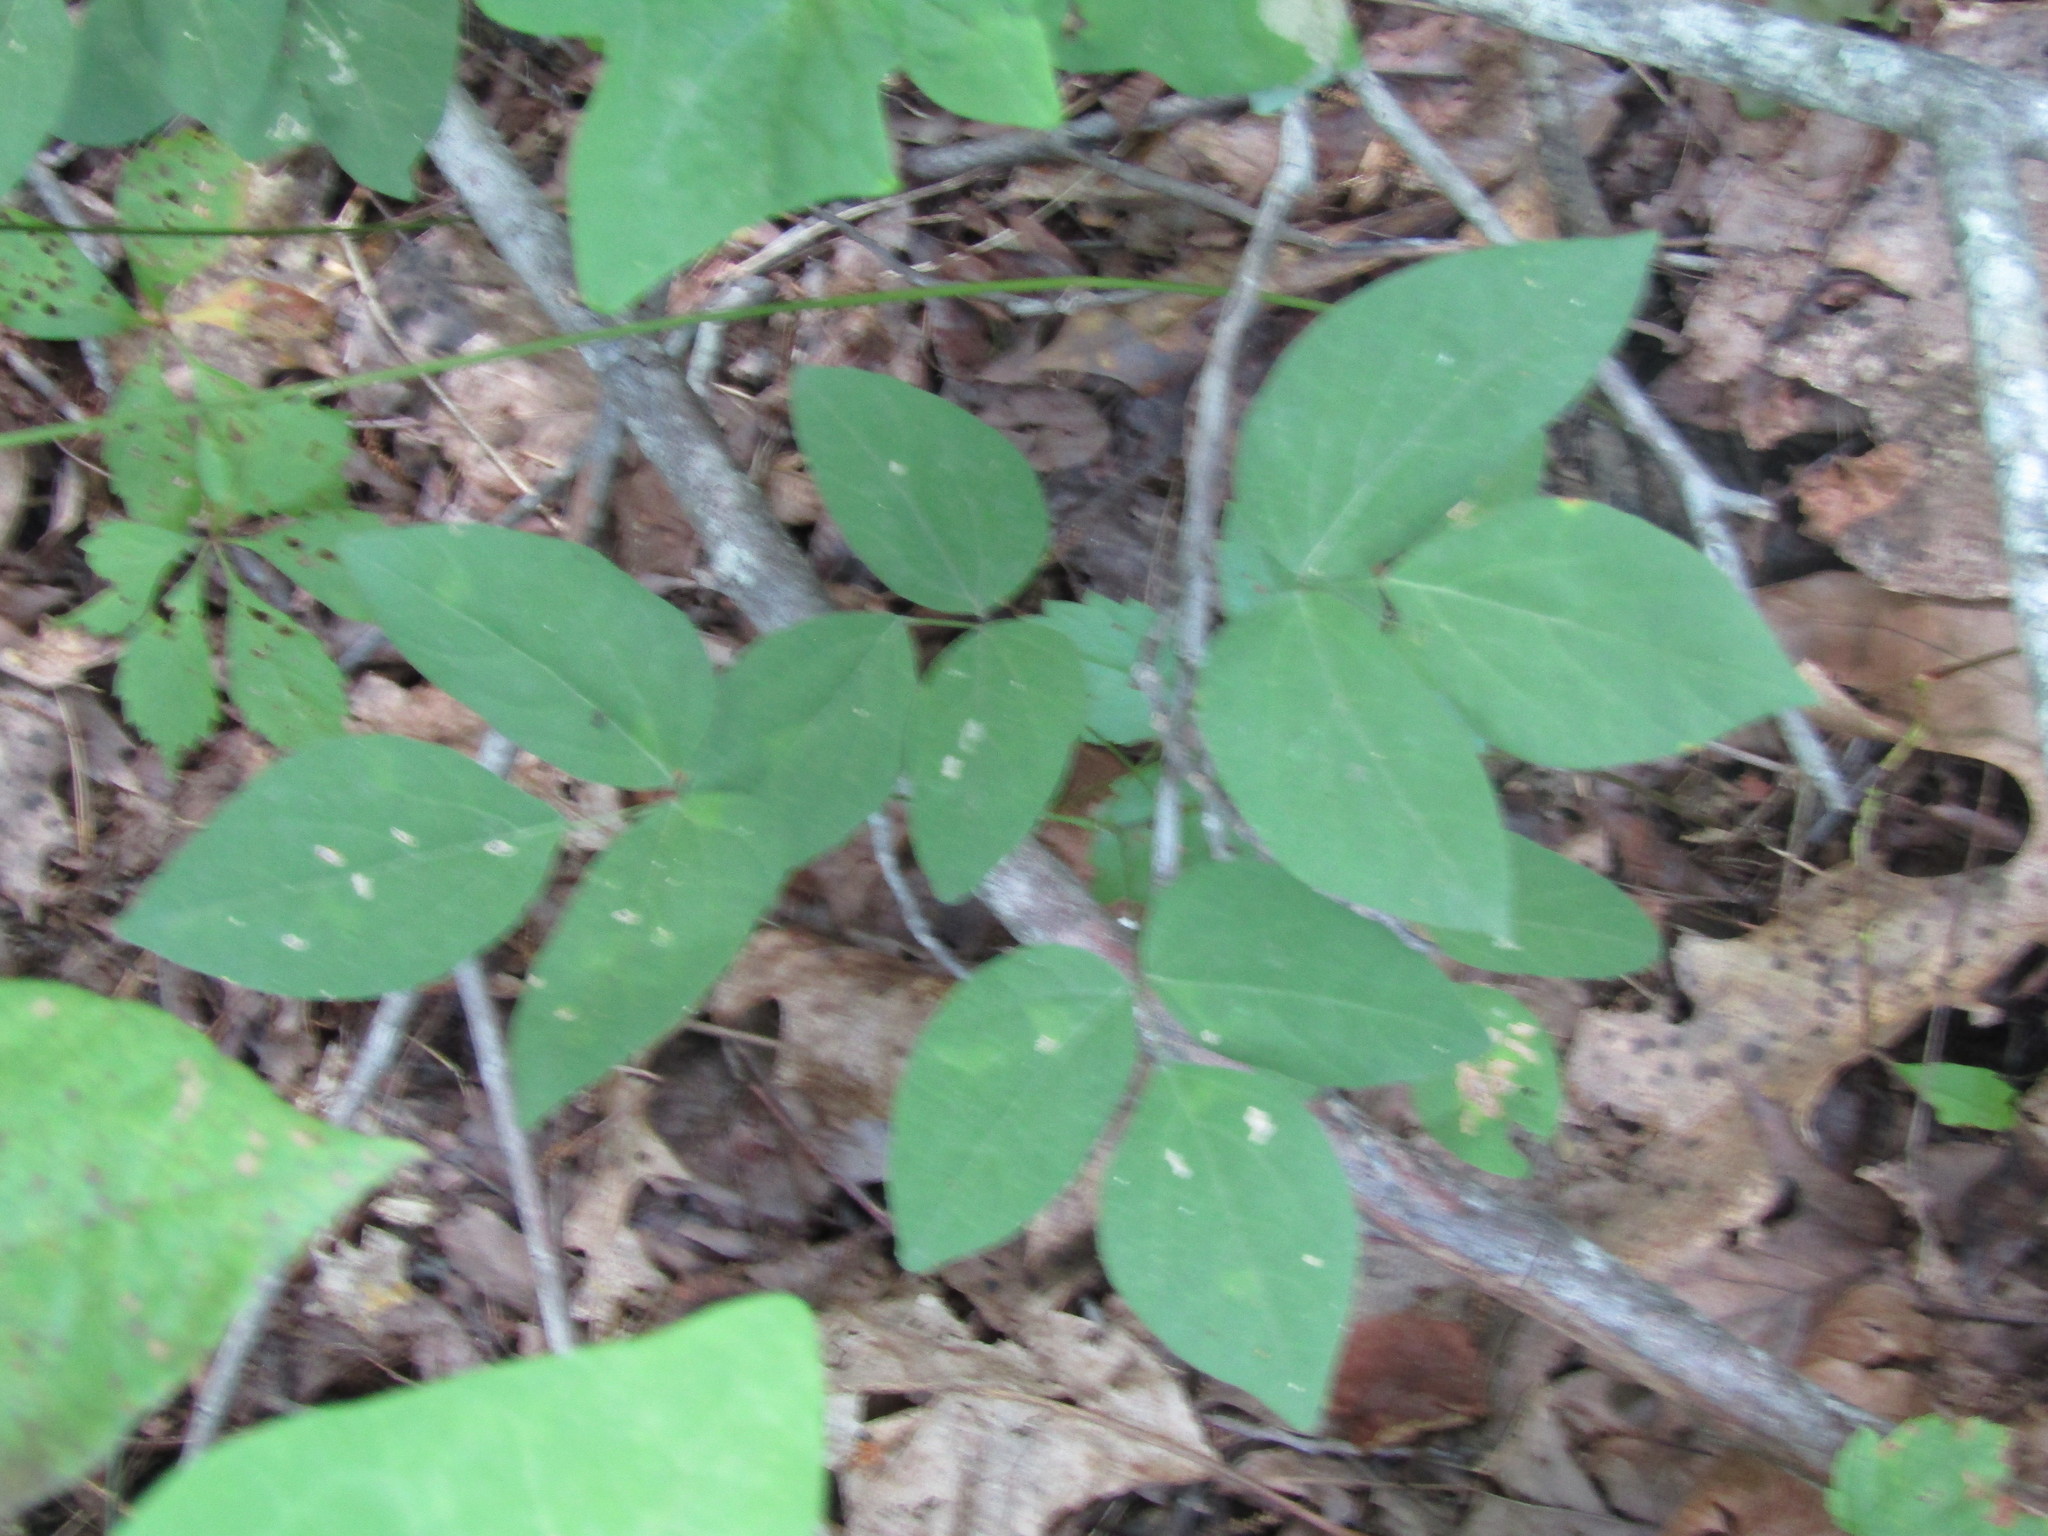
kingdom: Plantae
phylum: Tracheophyta
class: Magnoliopsida
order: Fabales
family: Fabaceae
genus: Hylodesmum
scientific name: Hylodesmum nudiflorum
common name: Bare-stemmed tick-trefoil
